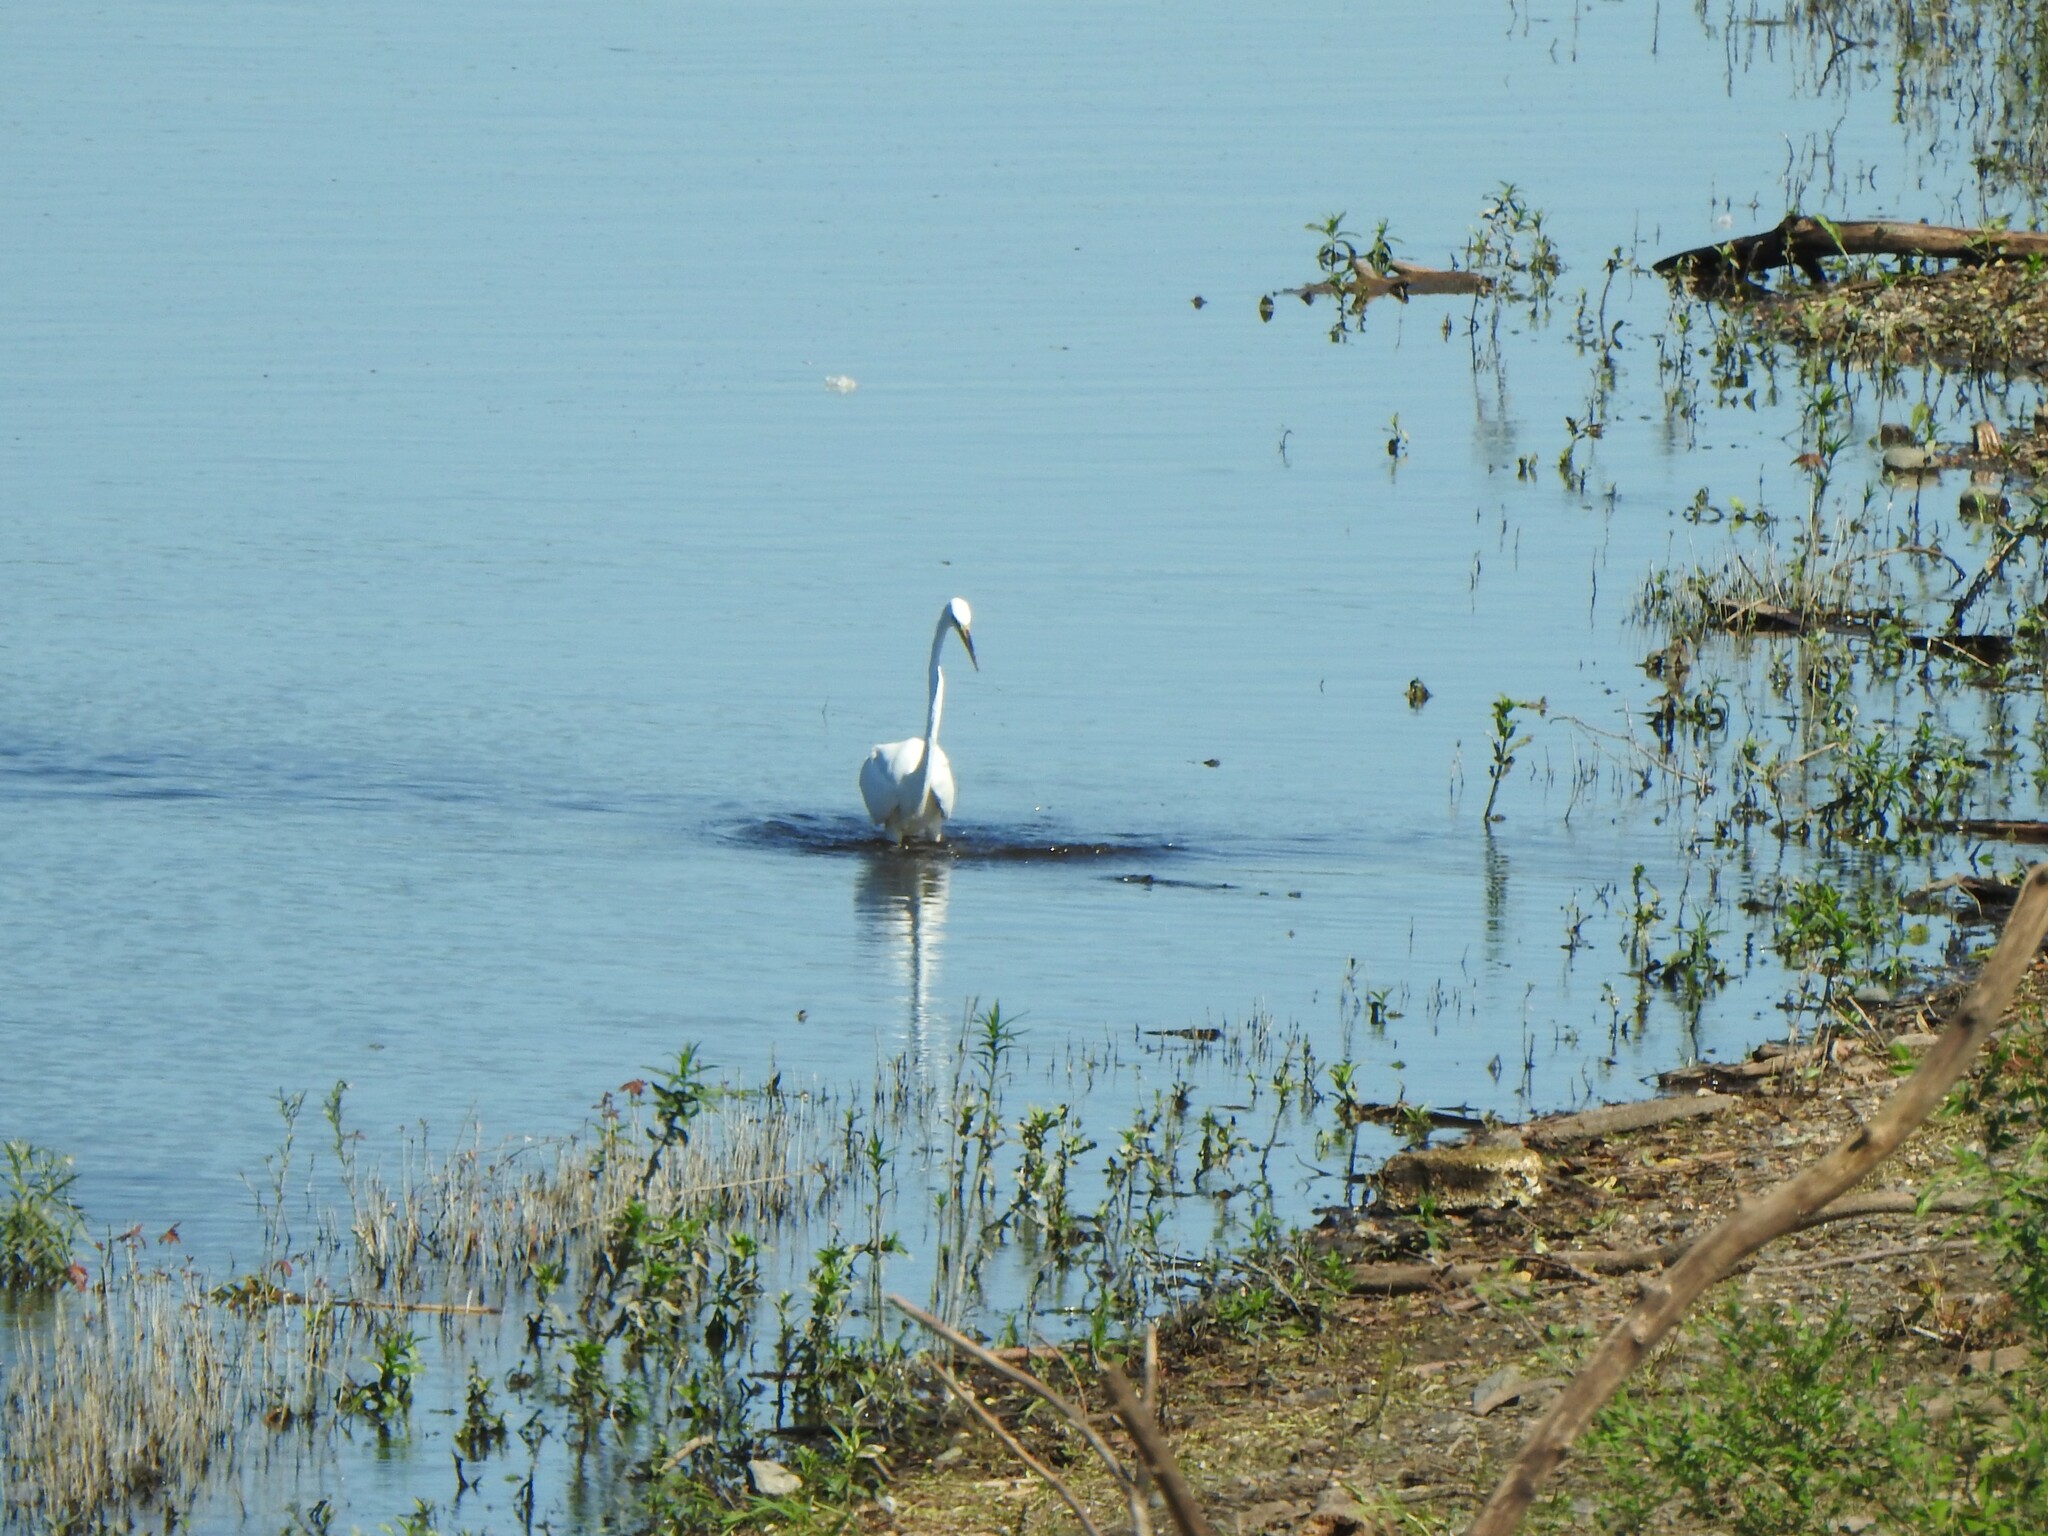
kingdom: Animalia
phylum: Chordata
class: Aves
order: Pelecaniformes
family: Ardeidae
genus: Ardea
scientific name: Ardea alba
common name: Great egret
